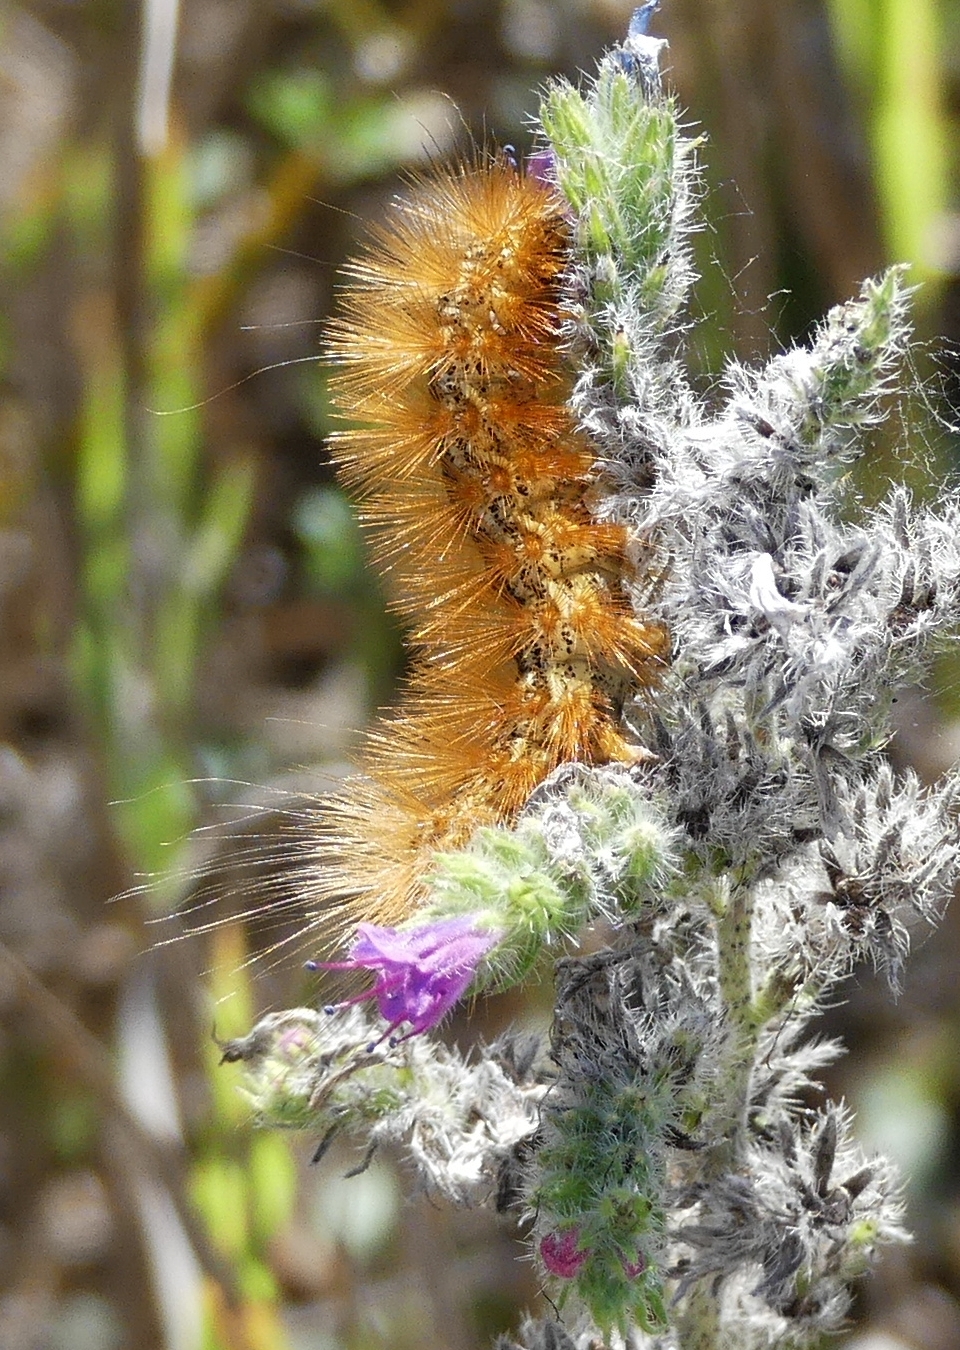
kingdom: Animalia
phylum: Arthropoda
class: Insecta
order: Lepidoptera
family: Erebidae
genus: Estigmene
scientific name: Estigmene acrea
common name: Salt marsh moth
